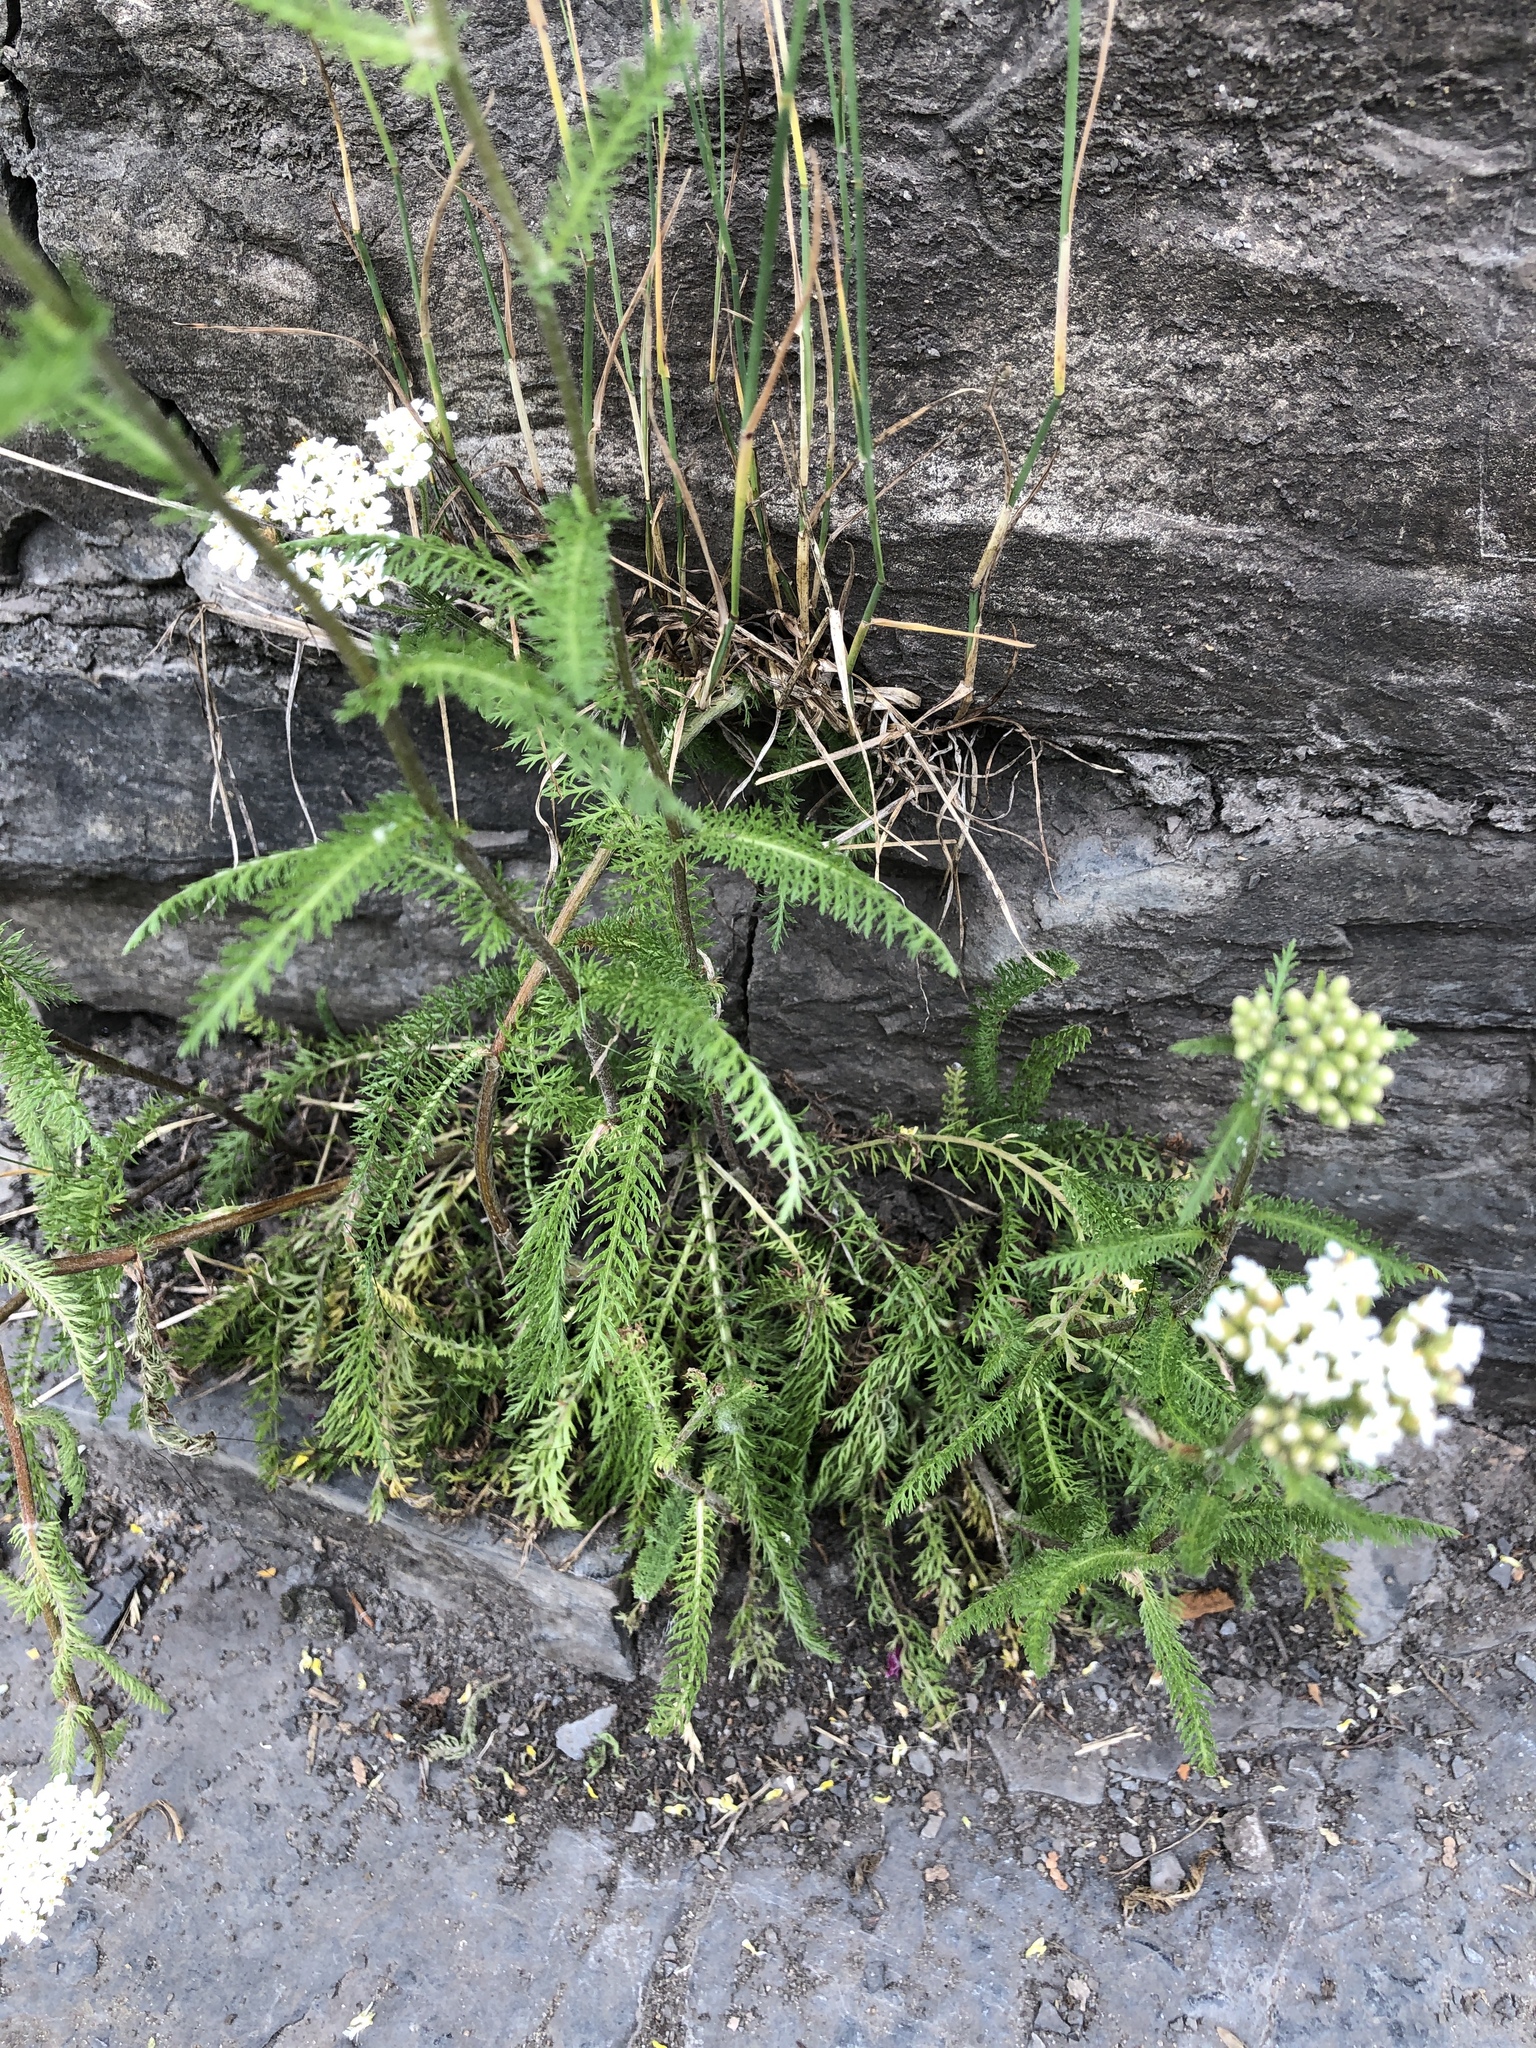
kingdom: Plantae
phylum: Tracheophyta
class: Magnoliopsida
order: Asterales
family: Asteraceae
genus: Achillea
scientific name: Achillea millefolium
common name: Yarrow
